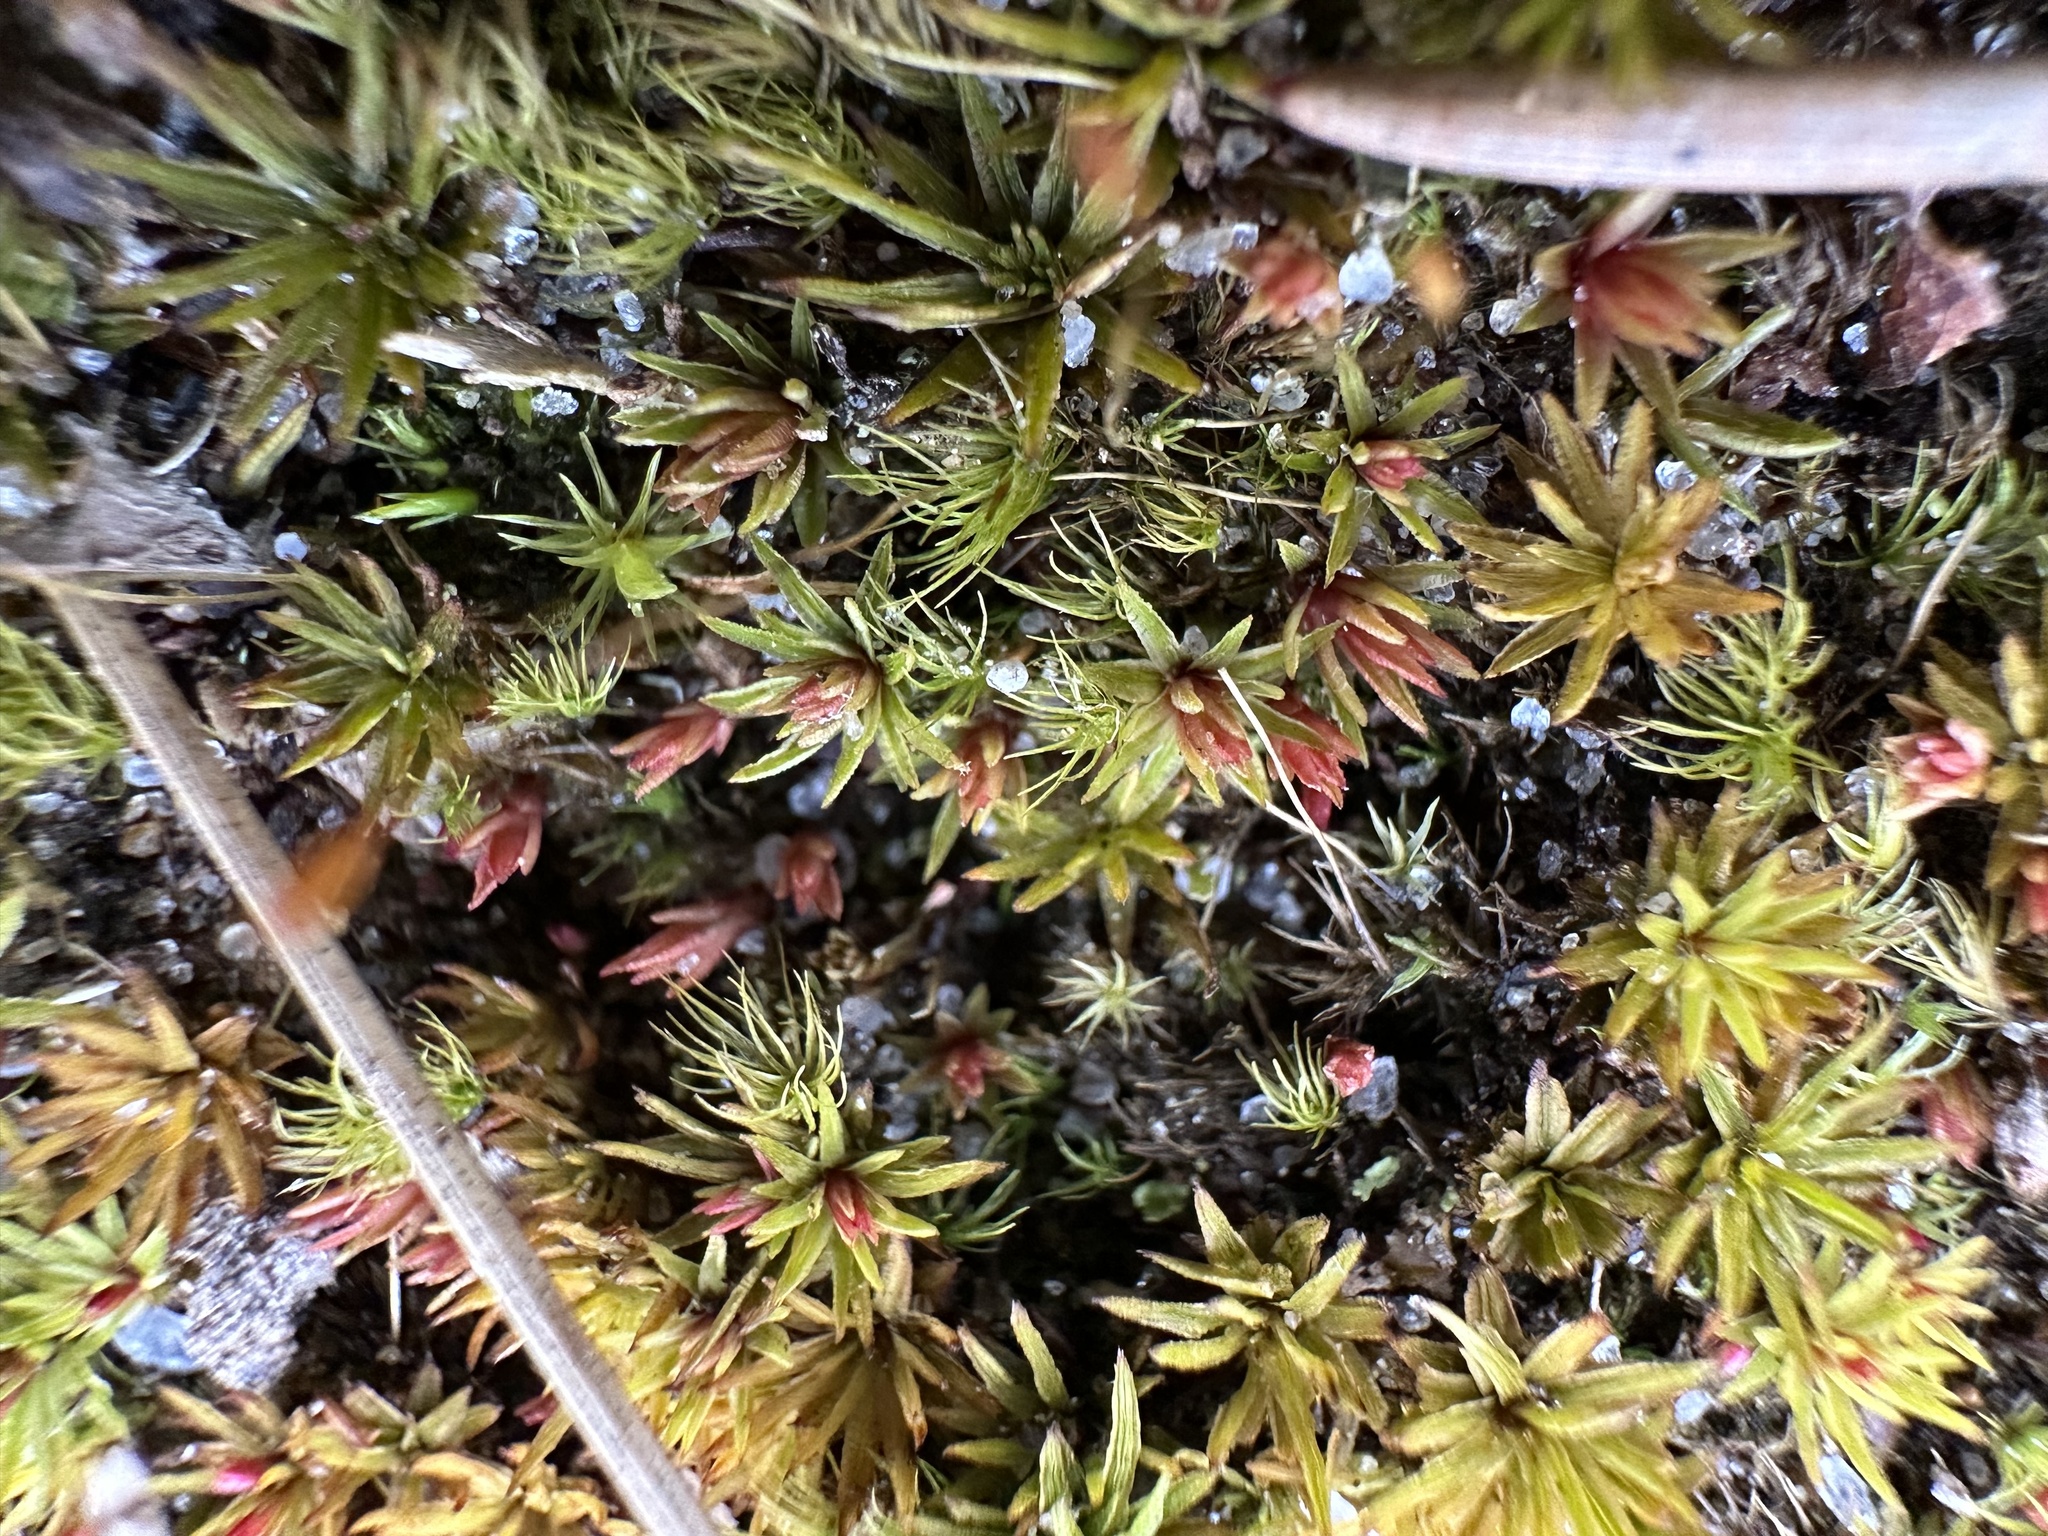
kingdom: Plantae
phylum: Bryophyta
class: Polytrichopsida
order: Polytrichales
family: Polytrichaceae
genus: Atrichum
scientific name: Atrichum angustatum
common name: Lesser smoothcap
